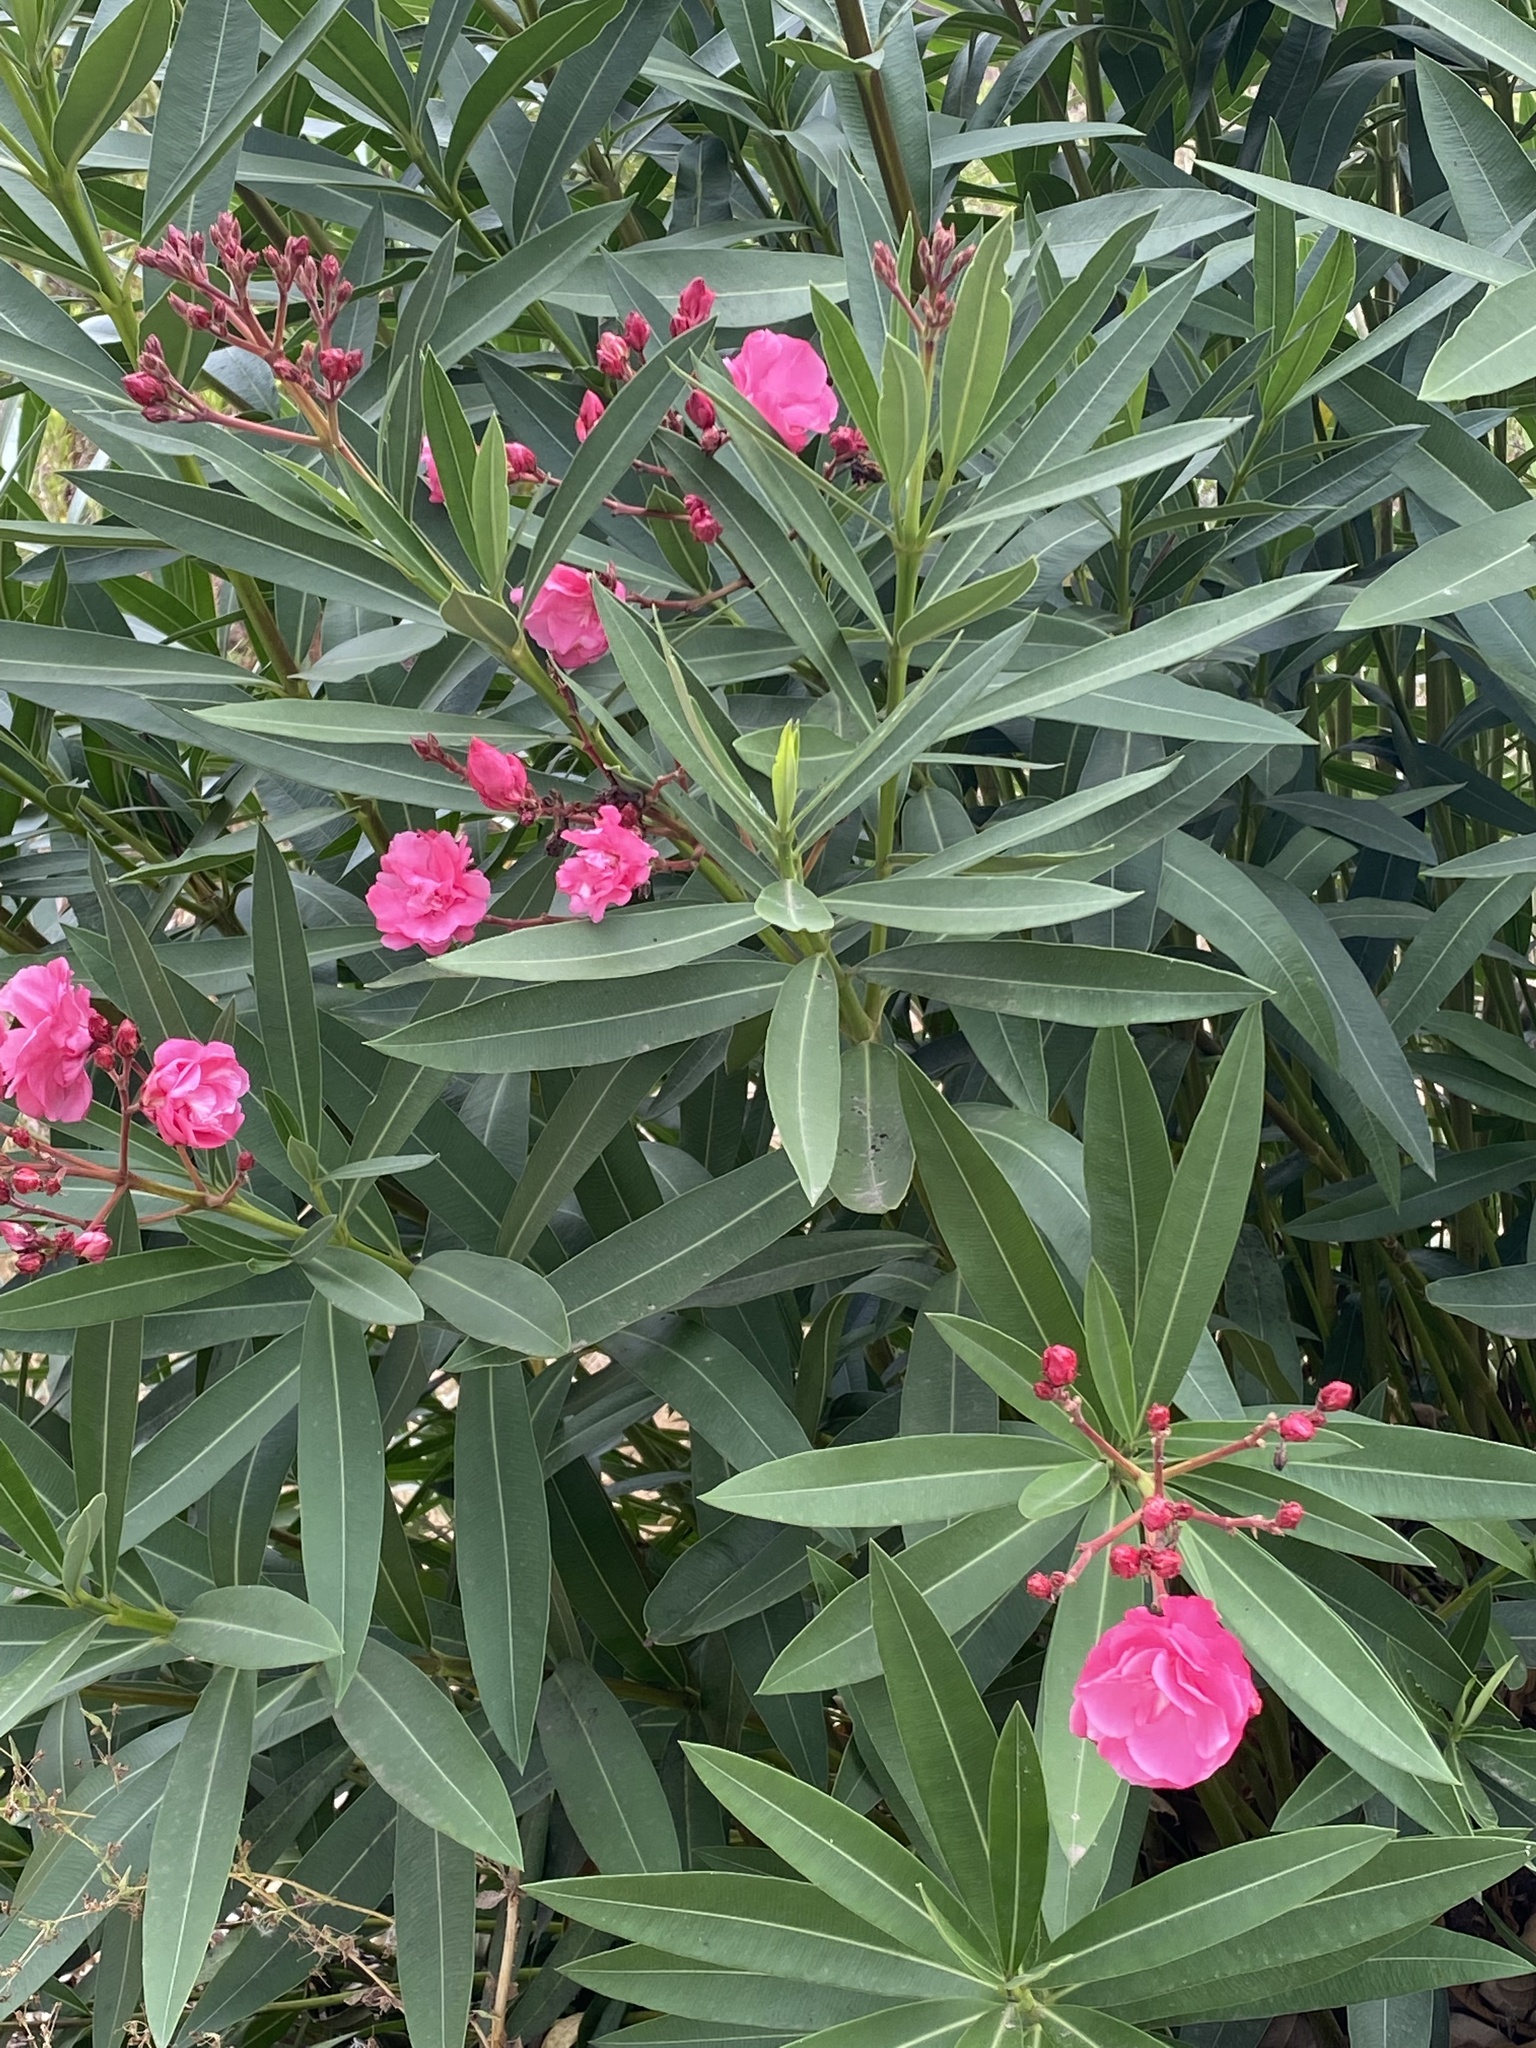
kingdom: Plantae
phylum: Tracheophyta
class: Magnoliopsida
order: Gentianales
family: Apocynaceae
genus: Nerium
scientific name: Nerium oleander
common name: Oleander
